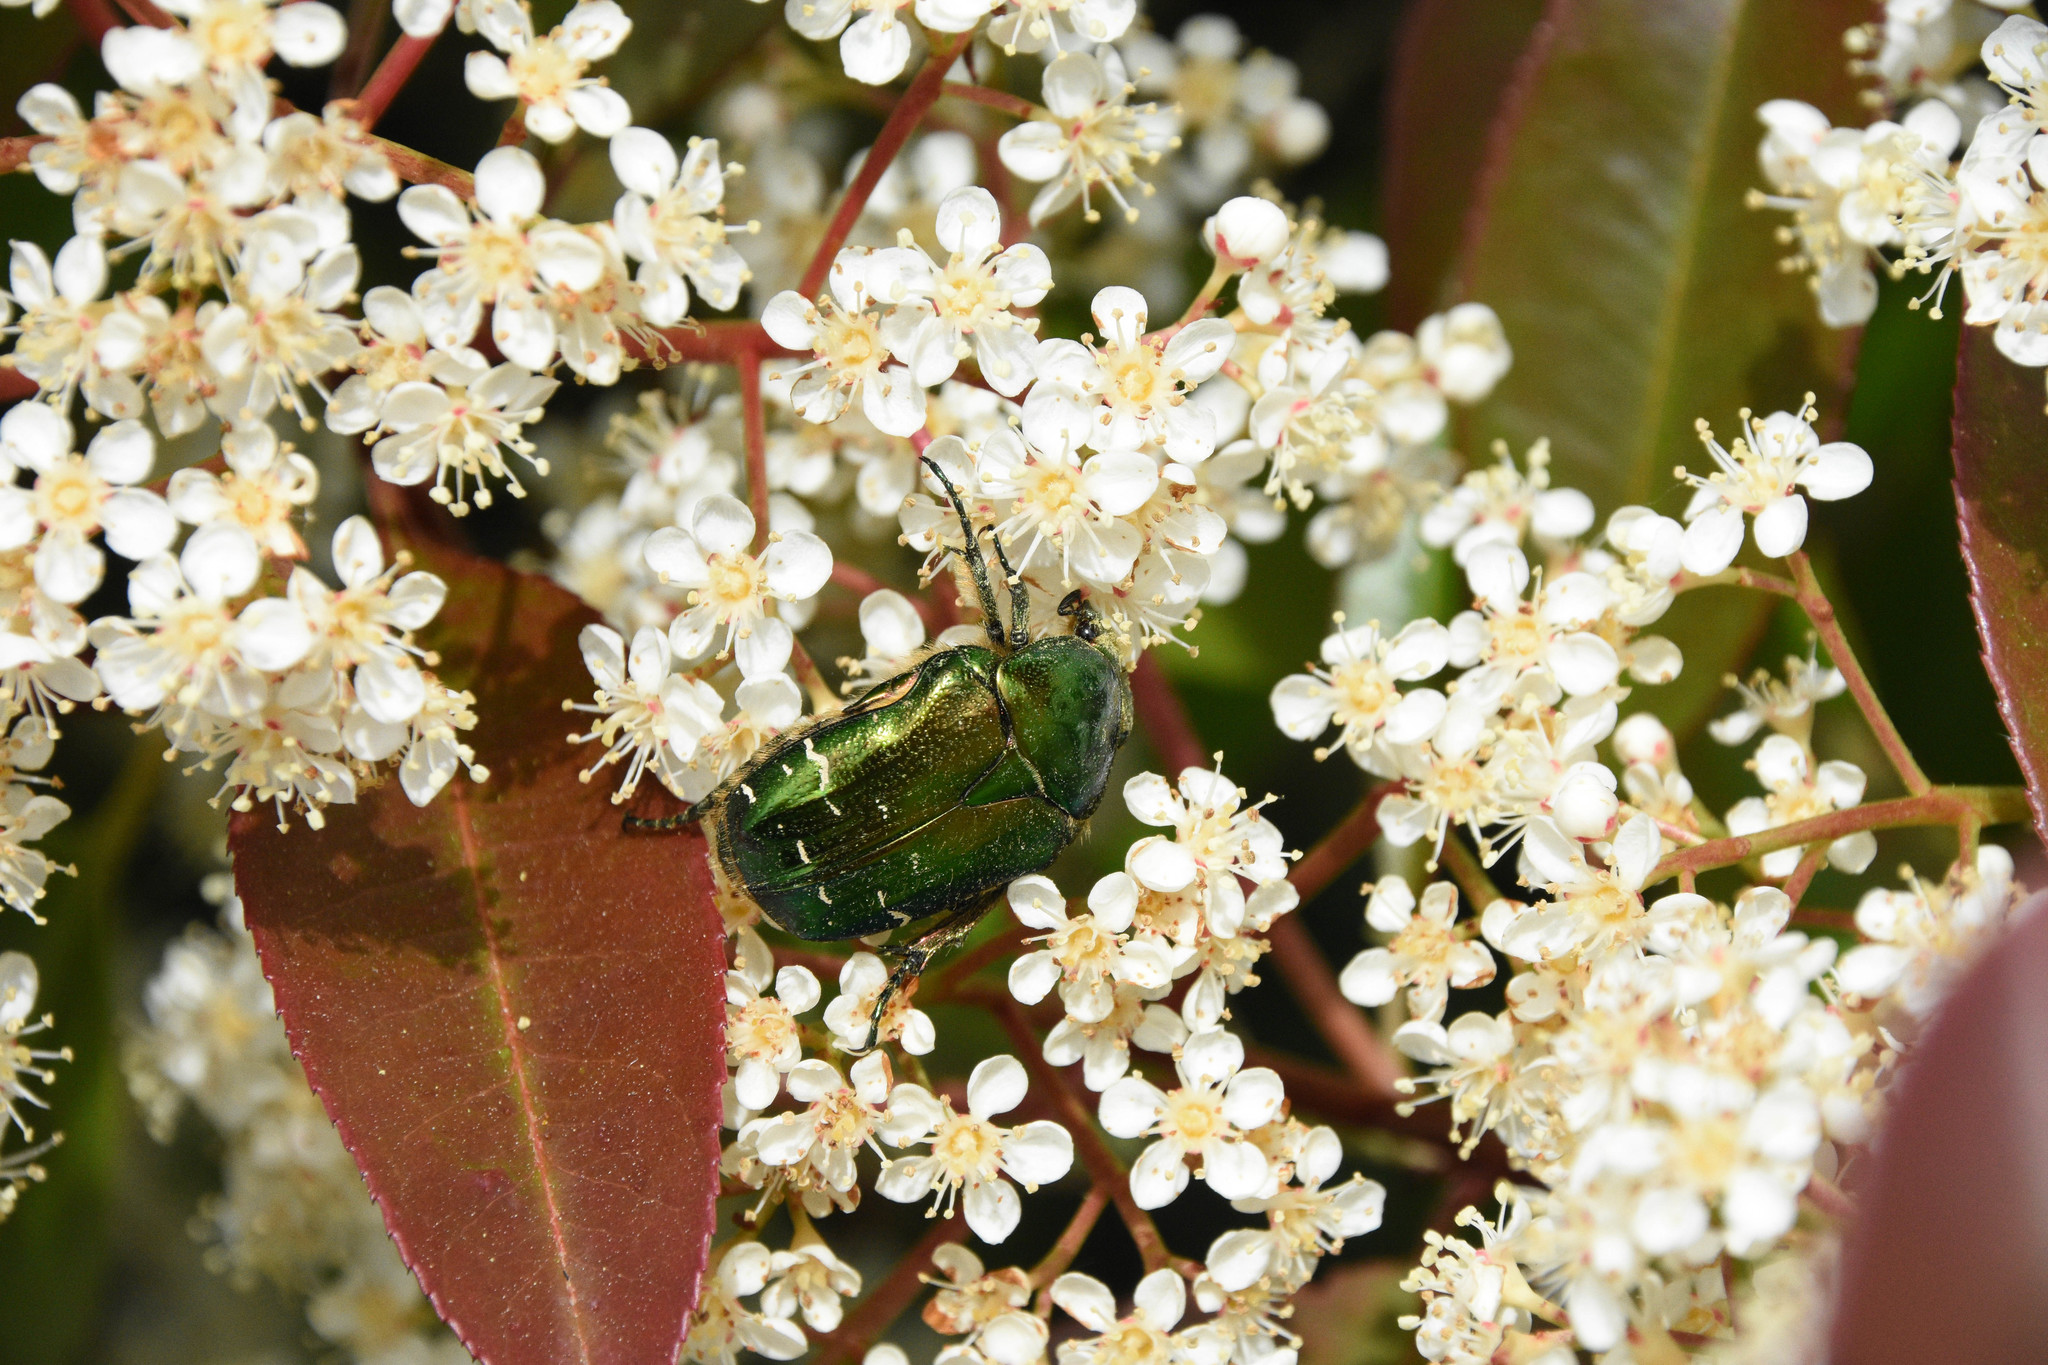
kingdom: Animalia
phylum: Arthropoda
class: Insecta
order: Coleoptera
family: Scarabaeidae
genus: Cetonia
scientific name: Cetonia aurata
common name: Rose chafer
